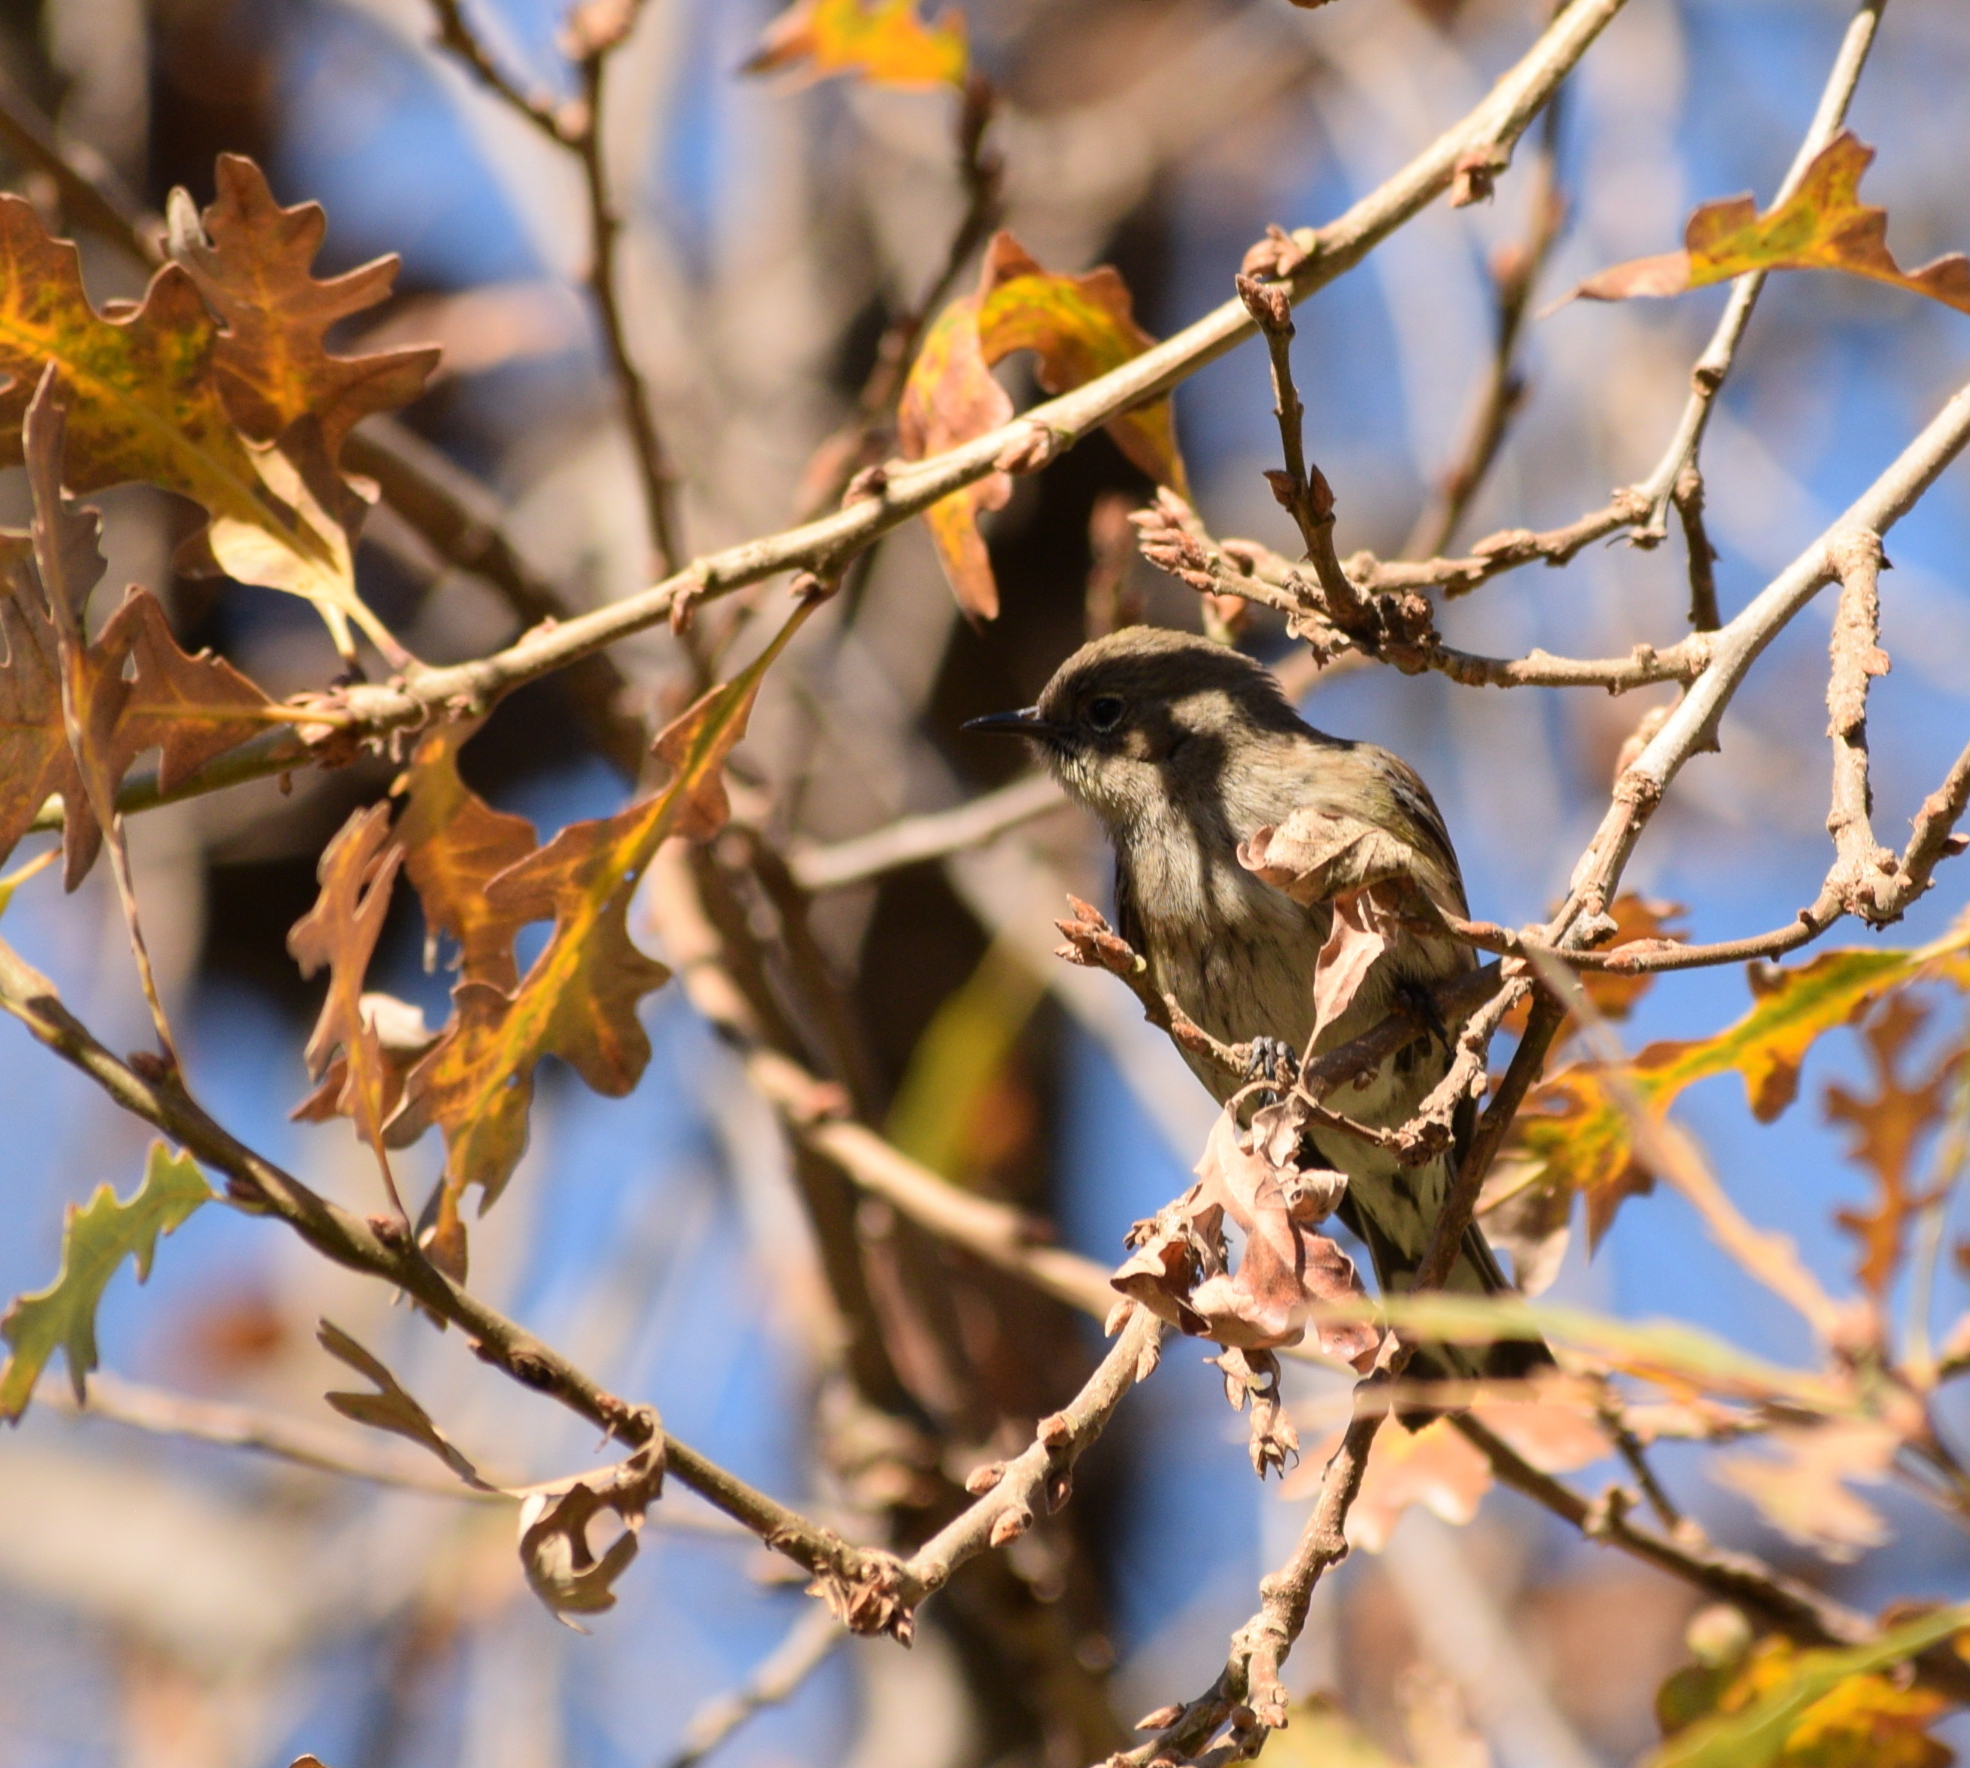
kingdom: Animalia
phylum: Chordata
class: Aves
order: Passeriformes
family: Parulidae
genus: Setophaga
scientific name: Setophaga coronata
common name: Myrtle warbler
